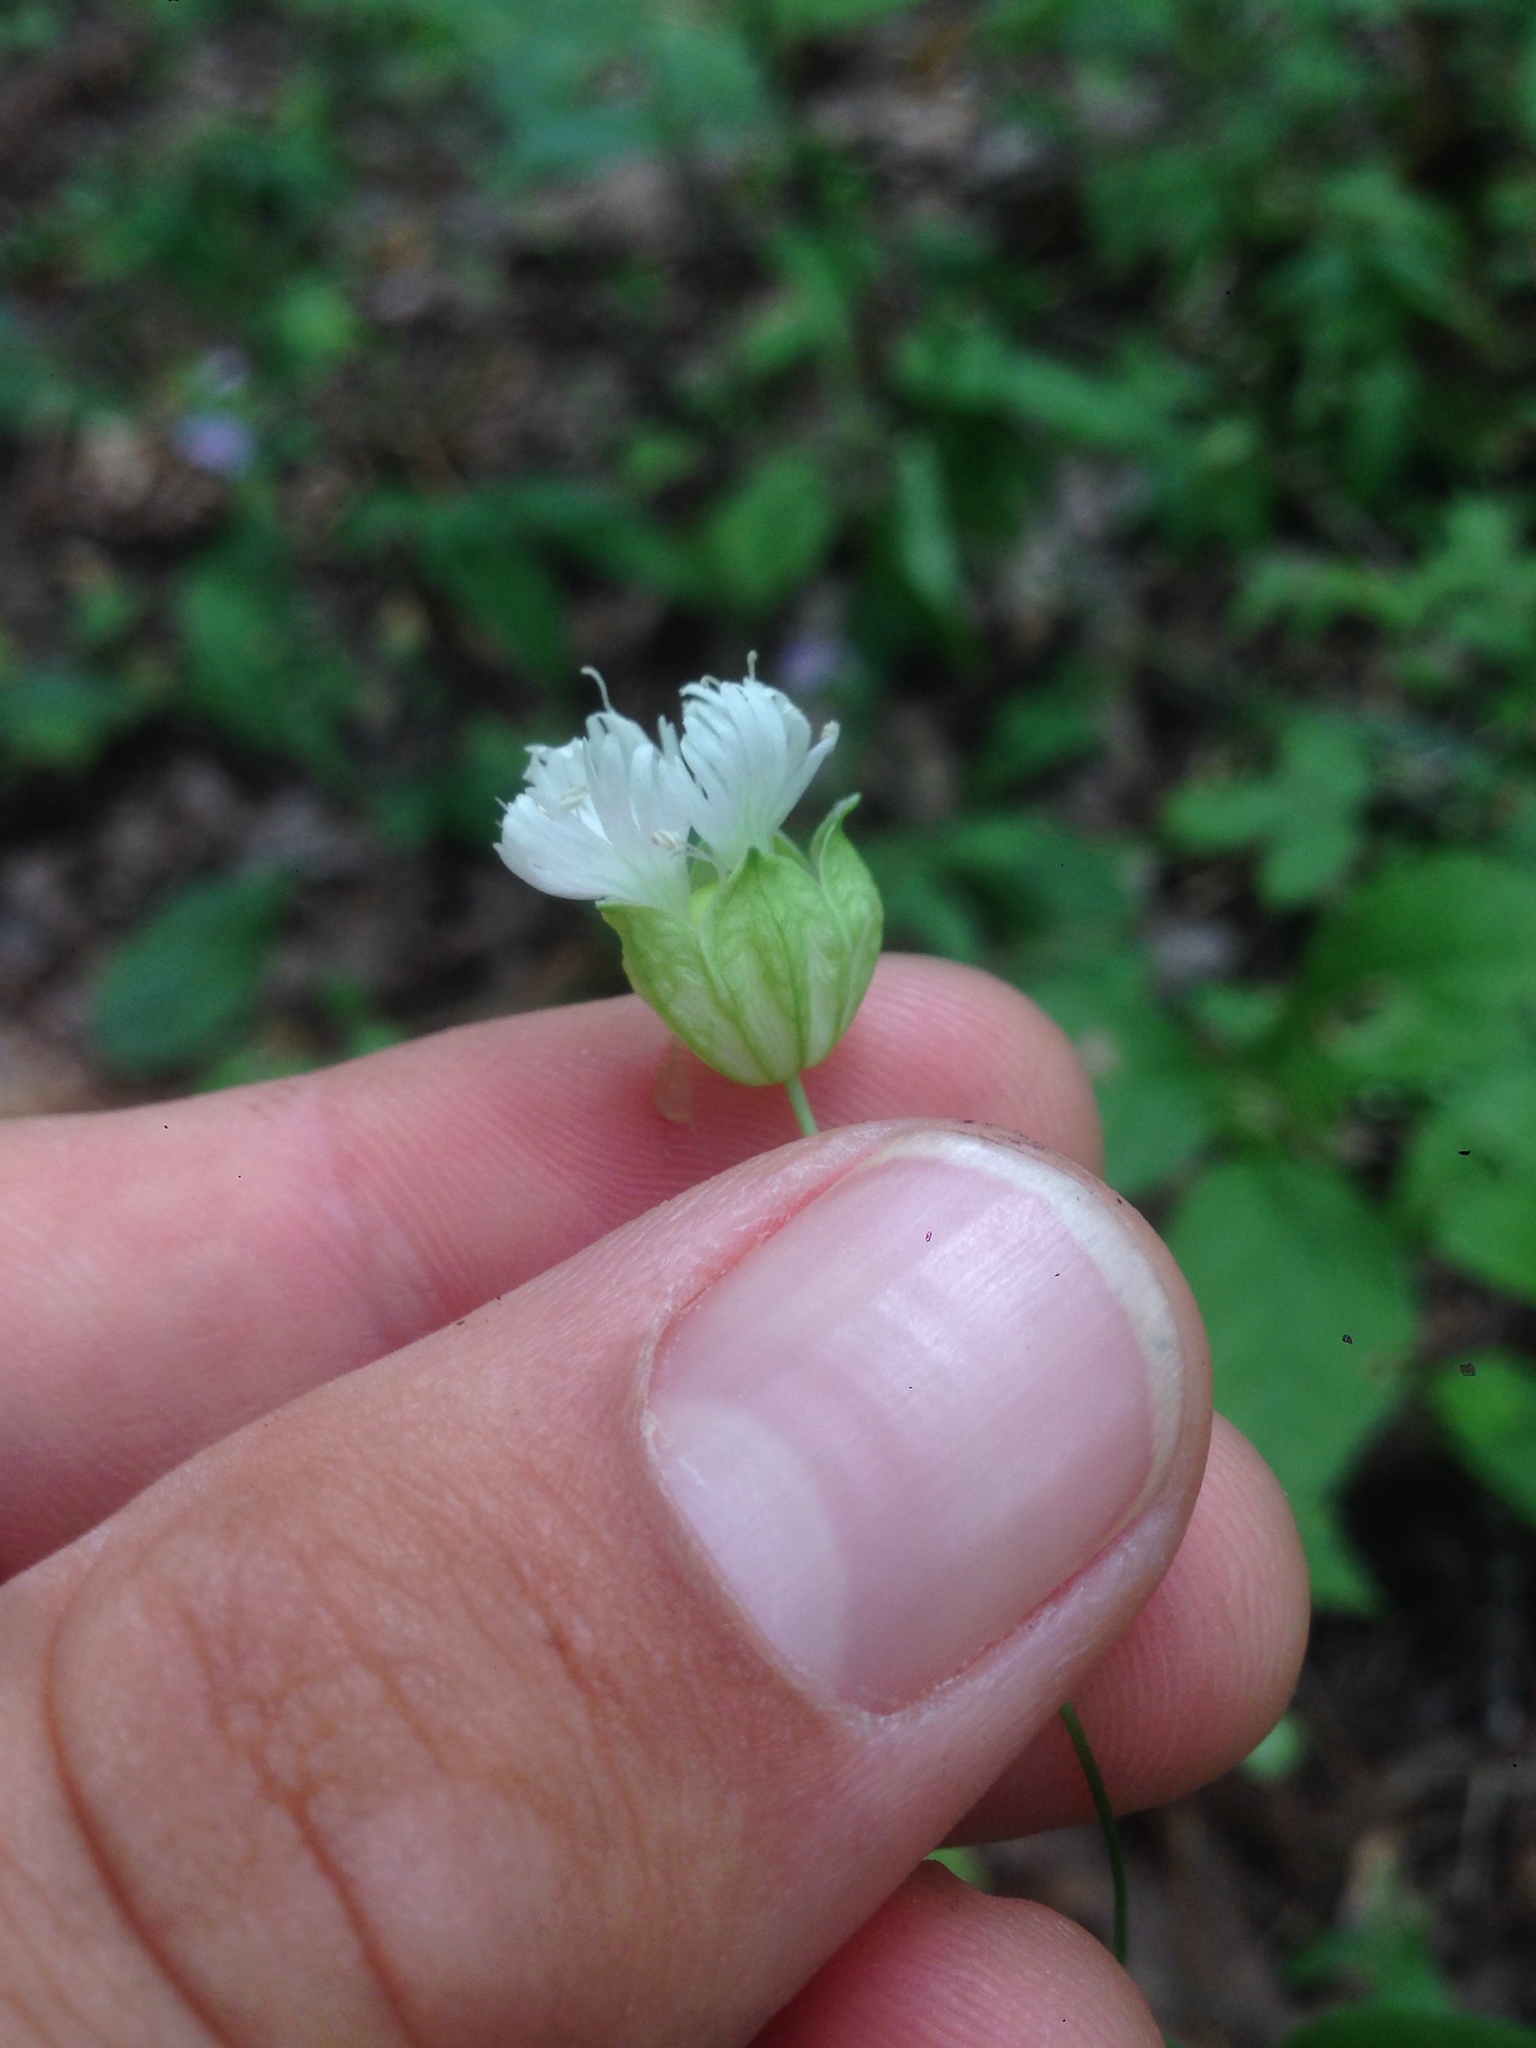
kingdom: Plantae
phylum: Tracheophyta
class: Magnoliopsida
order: Caryophyllales
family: Caryophyllaceae
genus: Silene
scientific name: Silene stellata
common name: Starry campion
